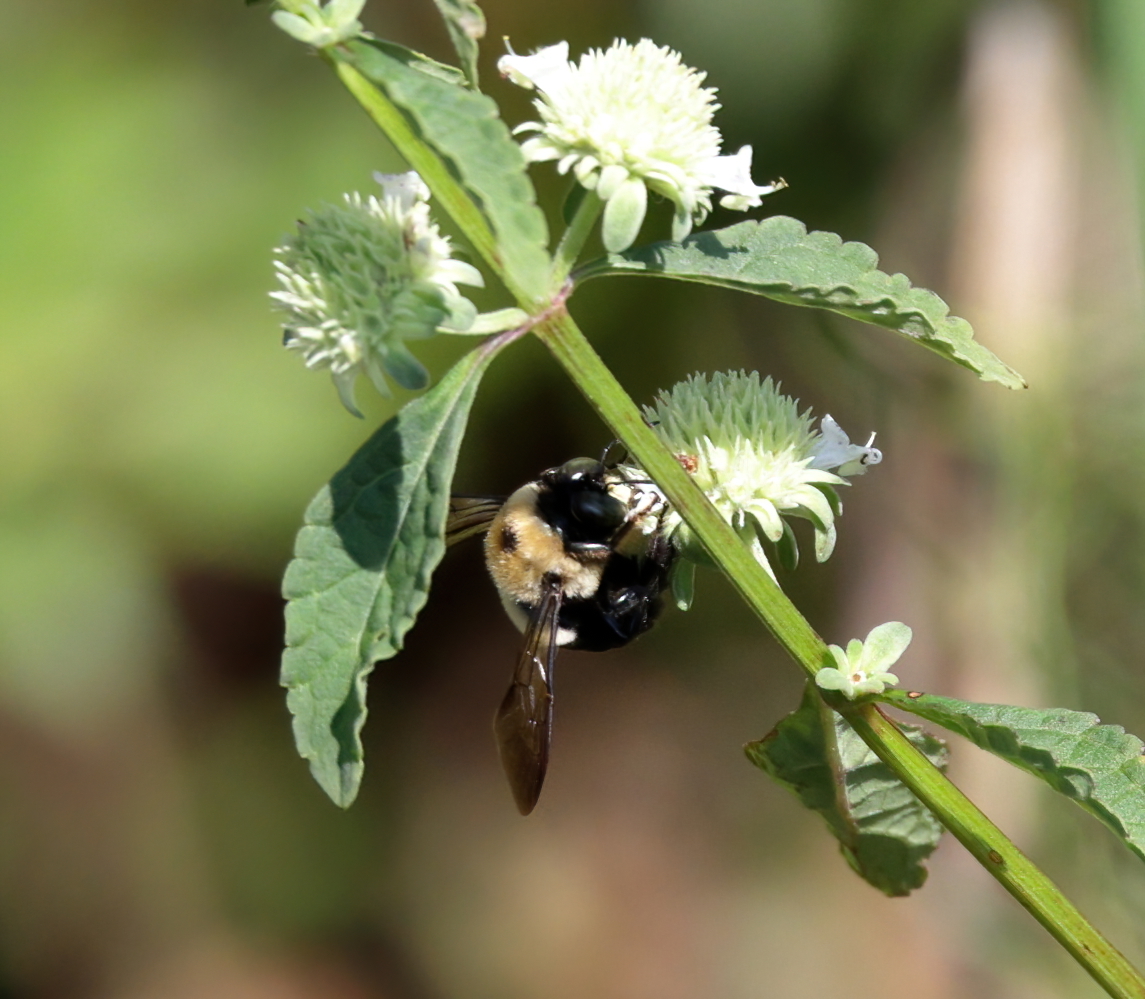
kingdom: Animalia
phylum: Arthropoda
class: Insecta
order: Hymenoptera
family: Apidae
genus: Xylocopa
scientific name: Xylocopa virginica
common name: Carpenter bee
